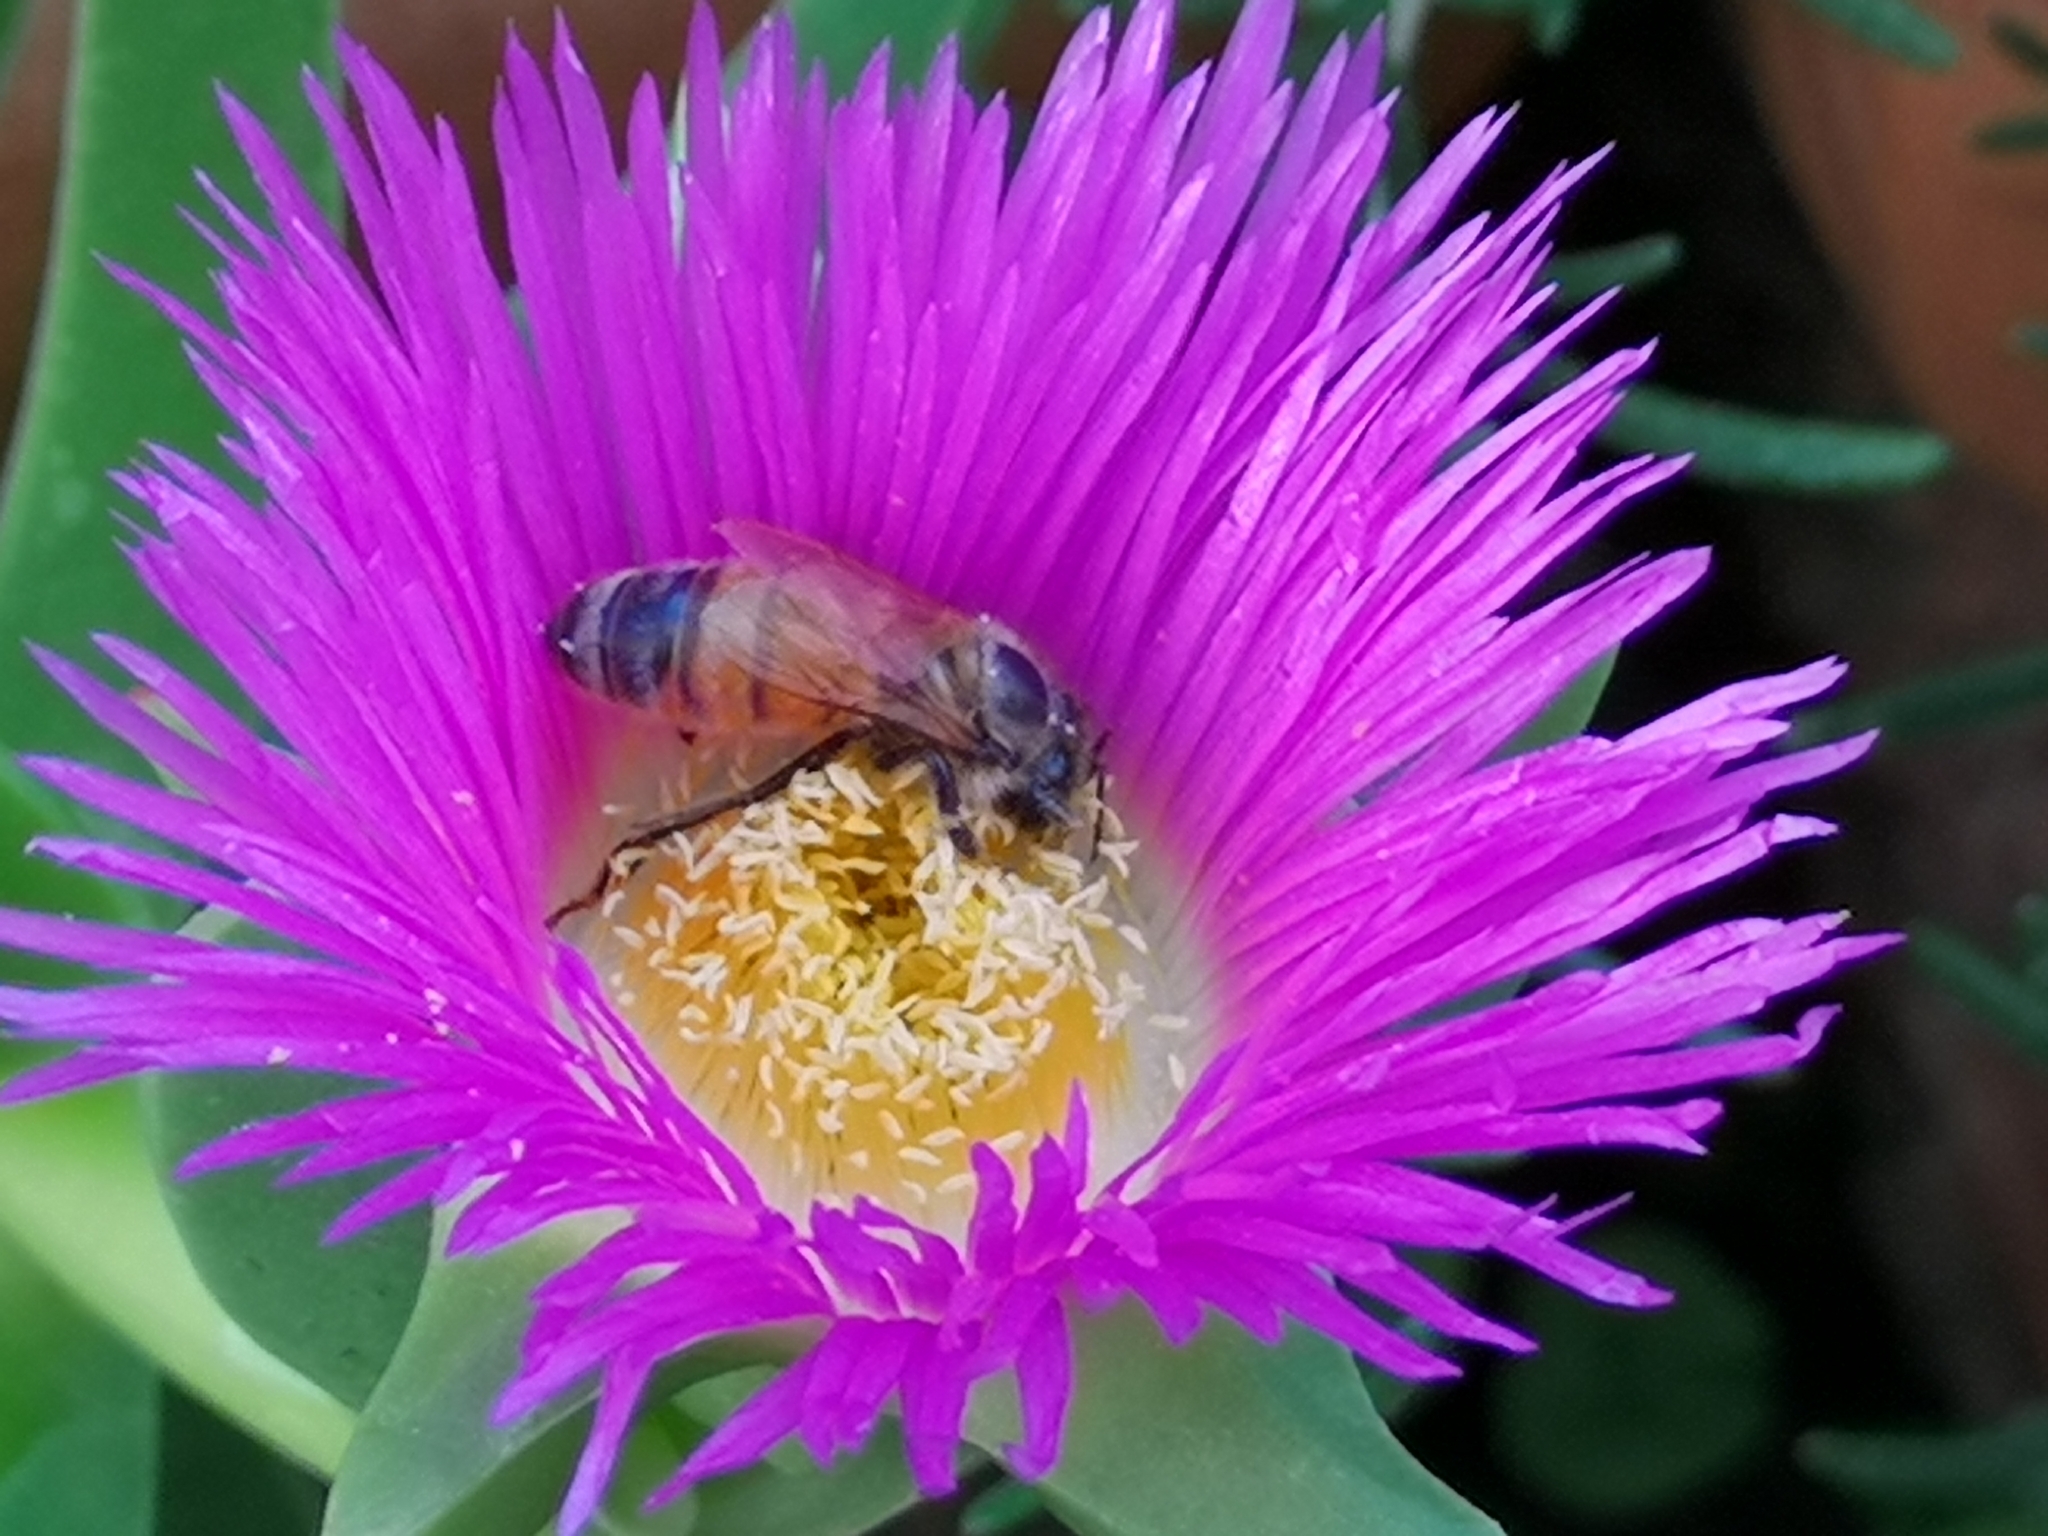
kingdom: Animalia
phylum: Arthropoda
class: Insecta
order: Hymenoptera
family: Apidae
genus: Apis
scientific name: Apis mellifera
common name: Honey bee
